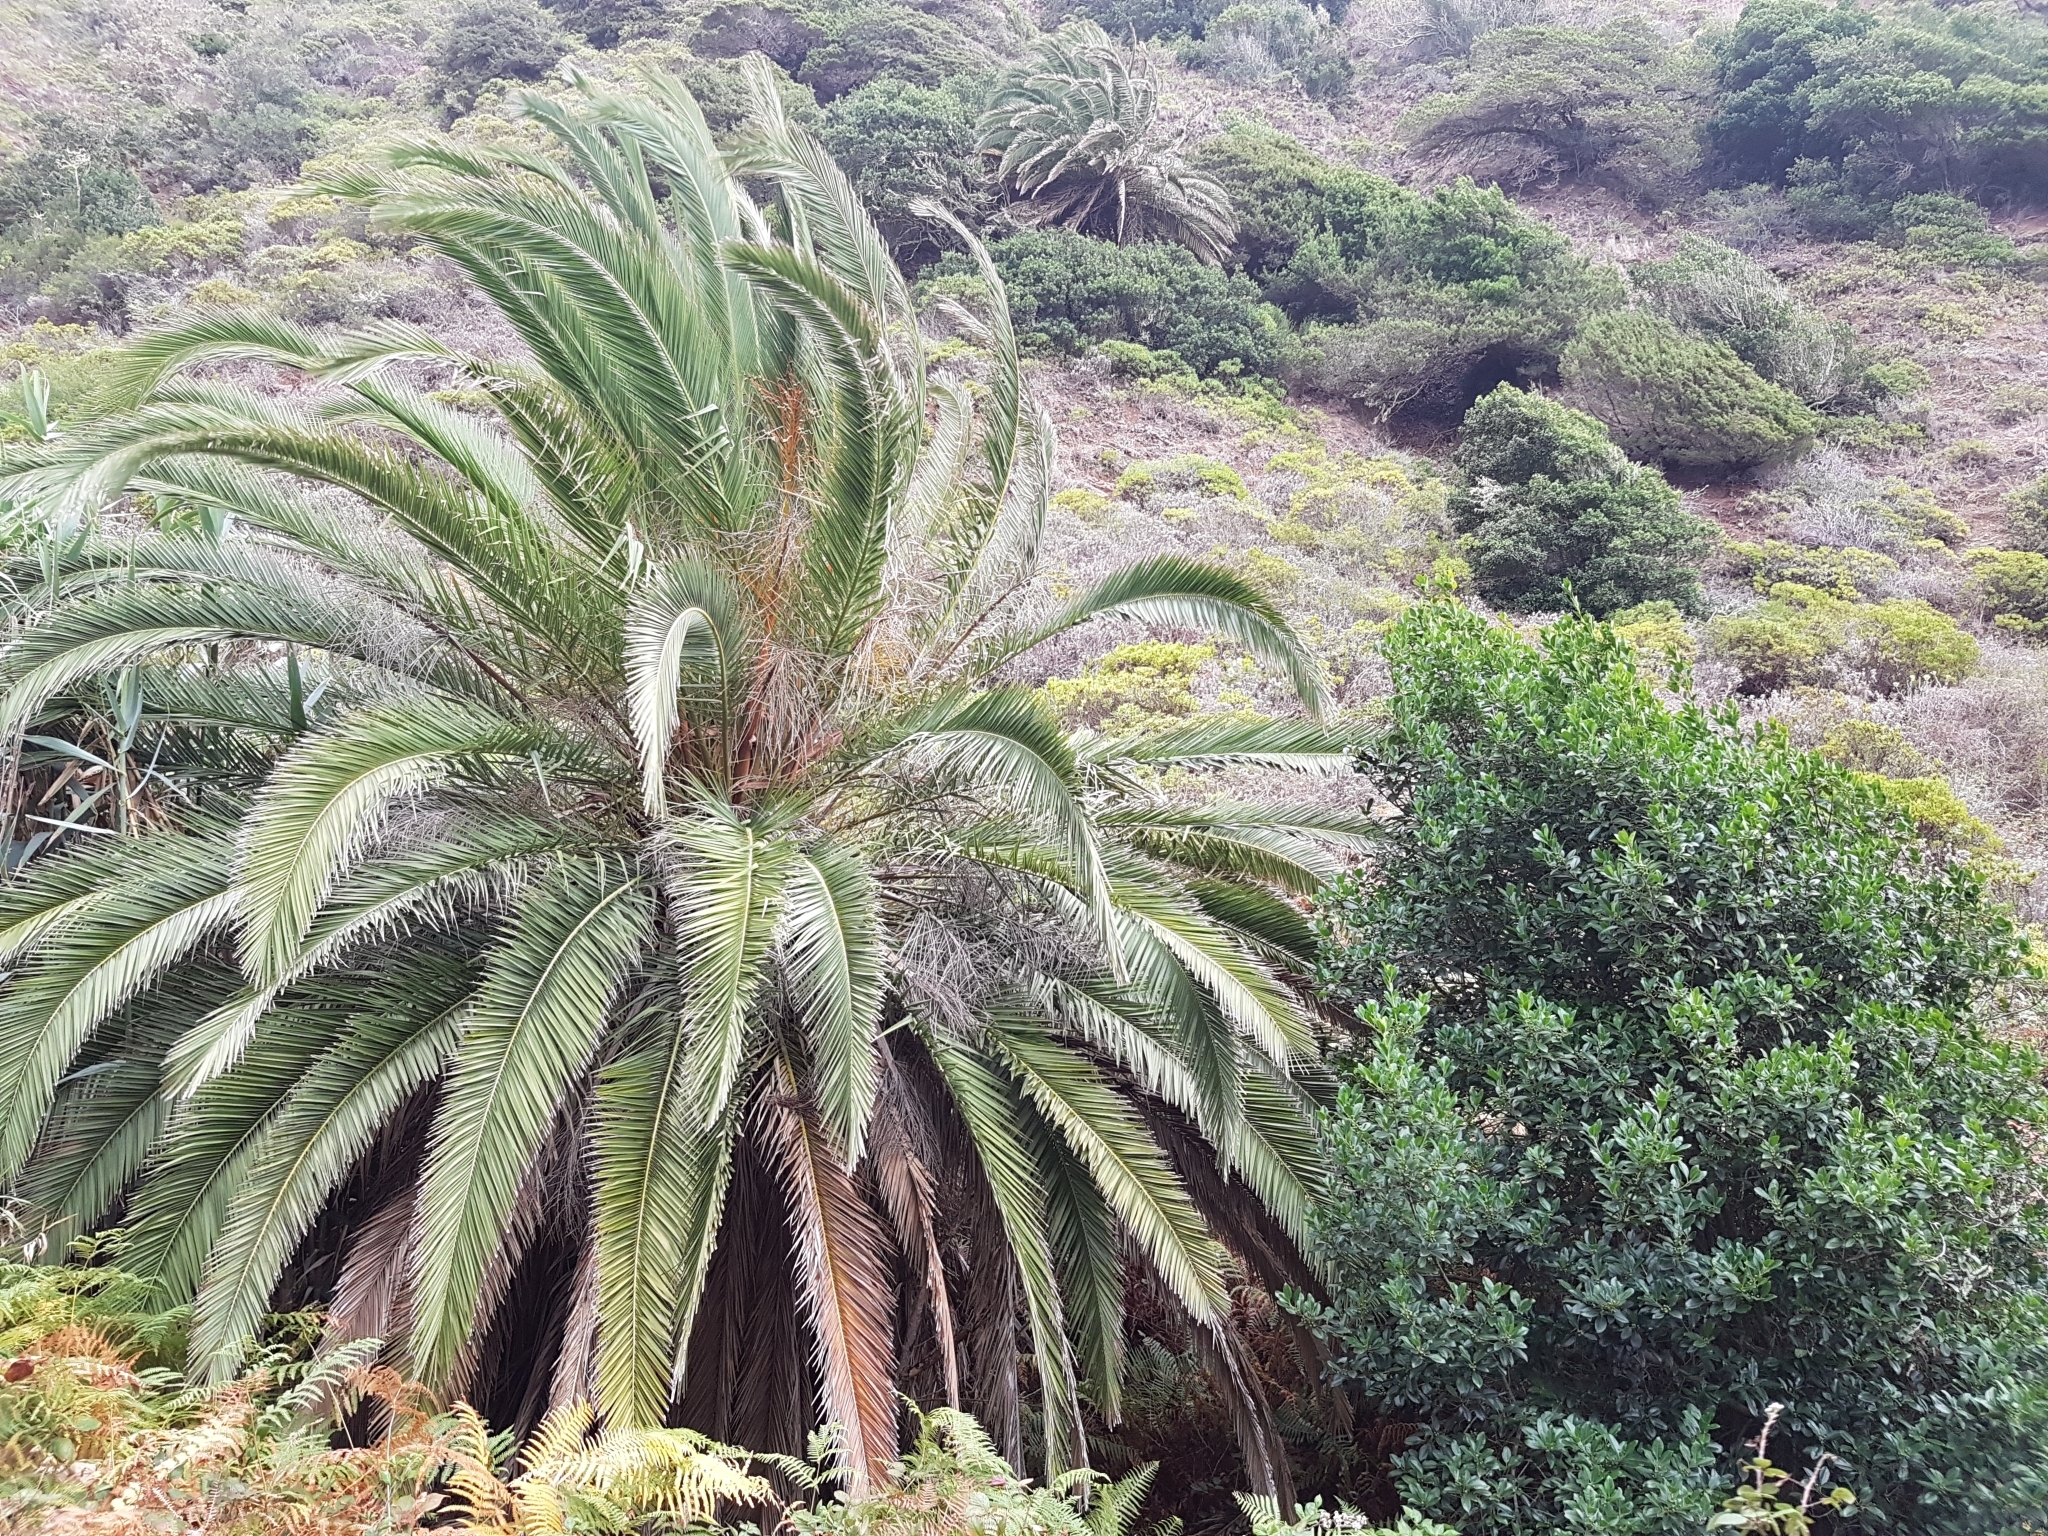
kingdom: Plantae
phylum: Tracheophyta
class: Liliopsida
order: Arecales
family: Arecaceae
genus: Phoenix
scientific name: Phoenix canariensis
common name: Canary island date palm
